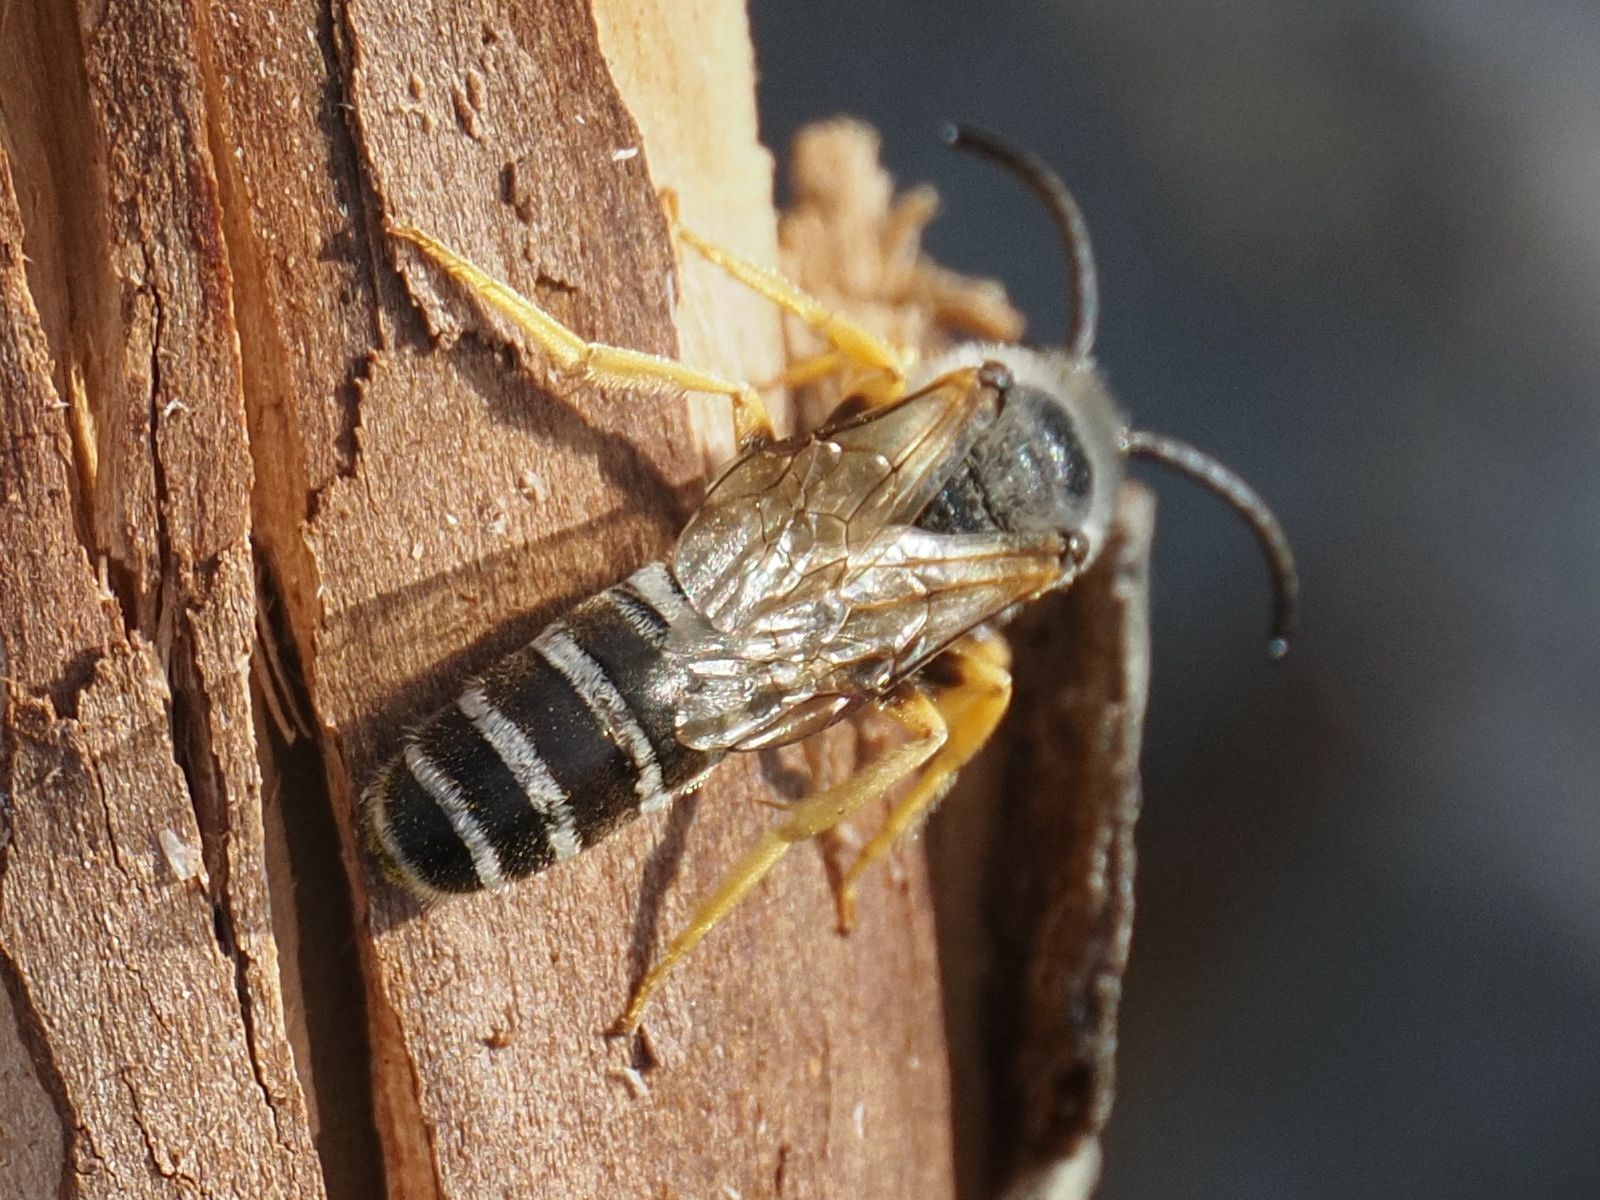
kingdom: Animalia
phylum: Arthropoda
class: Insecta
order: Hymenoptera
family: Halictidae
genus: Halictus
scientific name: Halictus scabiosae
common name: Great banded furrow bee
